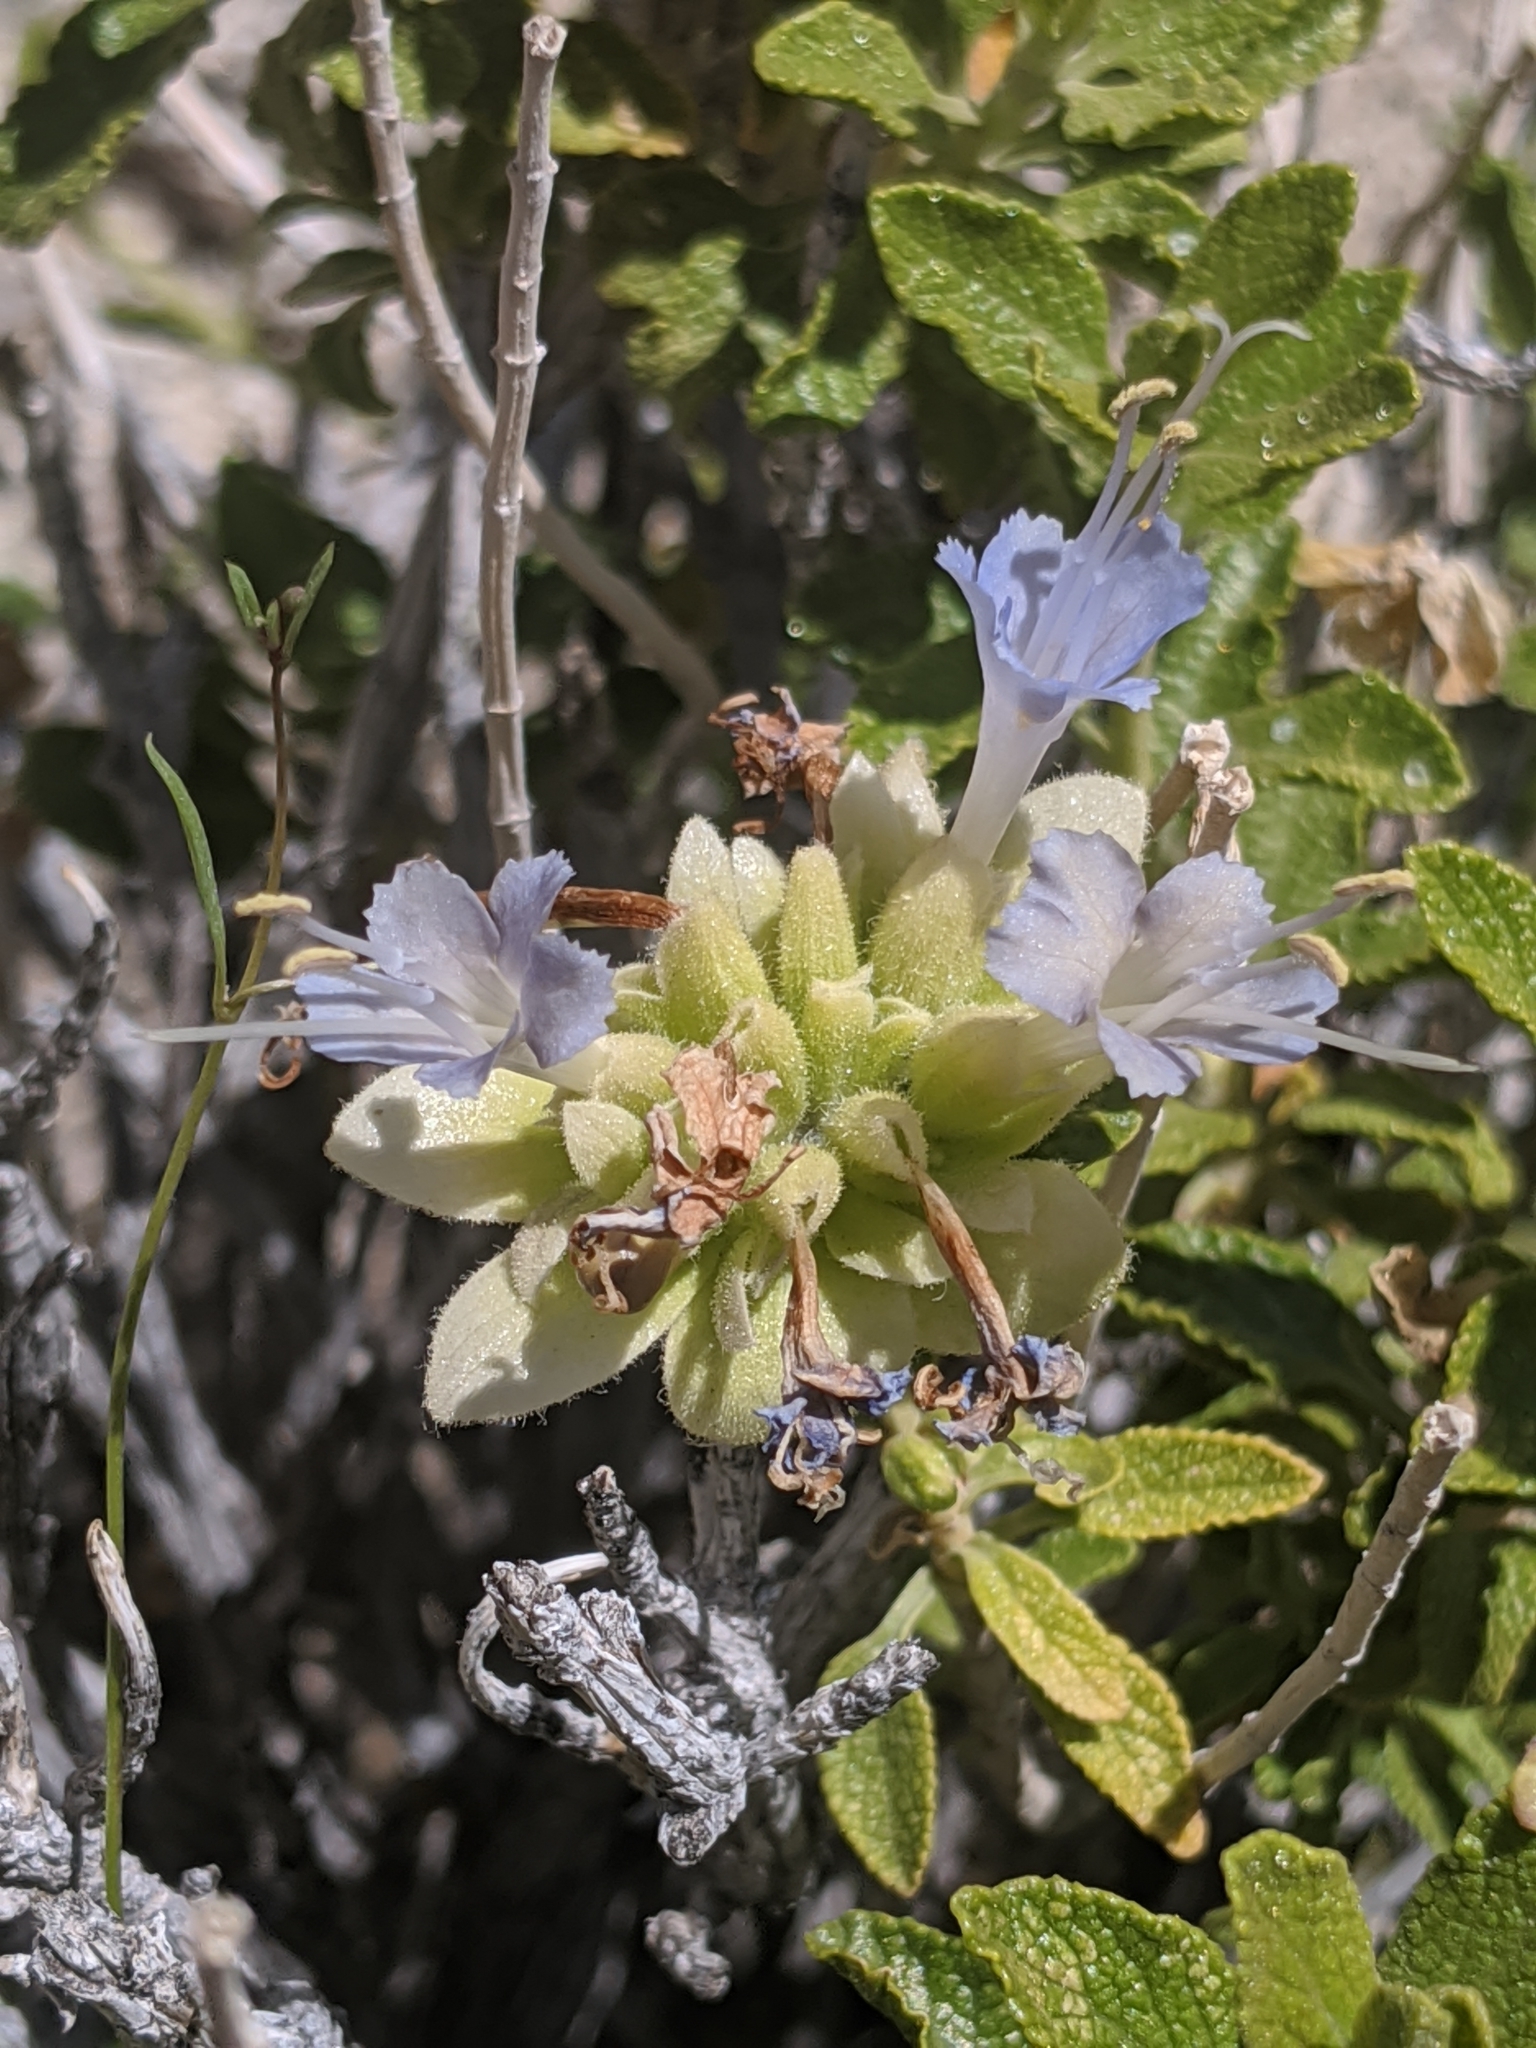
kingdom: Plantae
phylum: Tracheophyta
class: Magnoliopsida
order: Lamiales
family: Lamiaceae
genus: Salvia
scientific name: Salvia mohavensis
